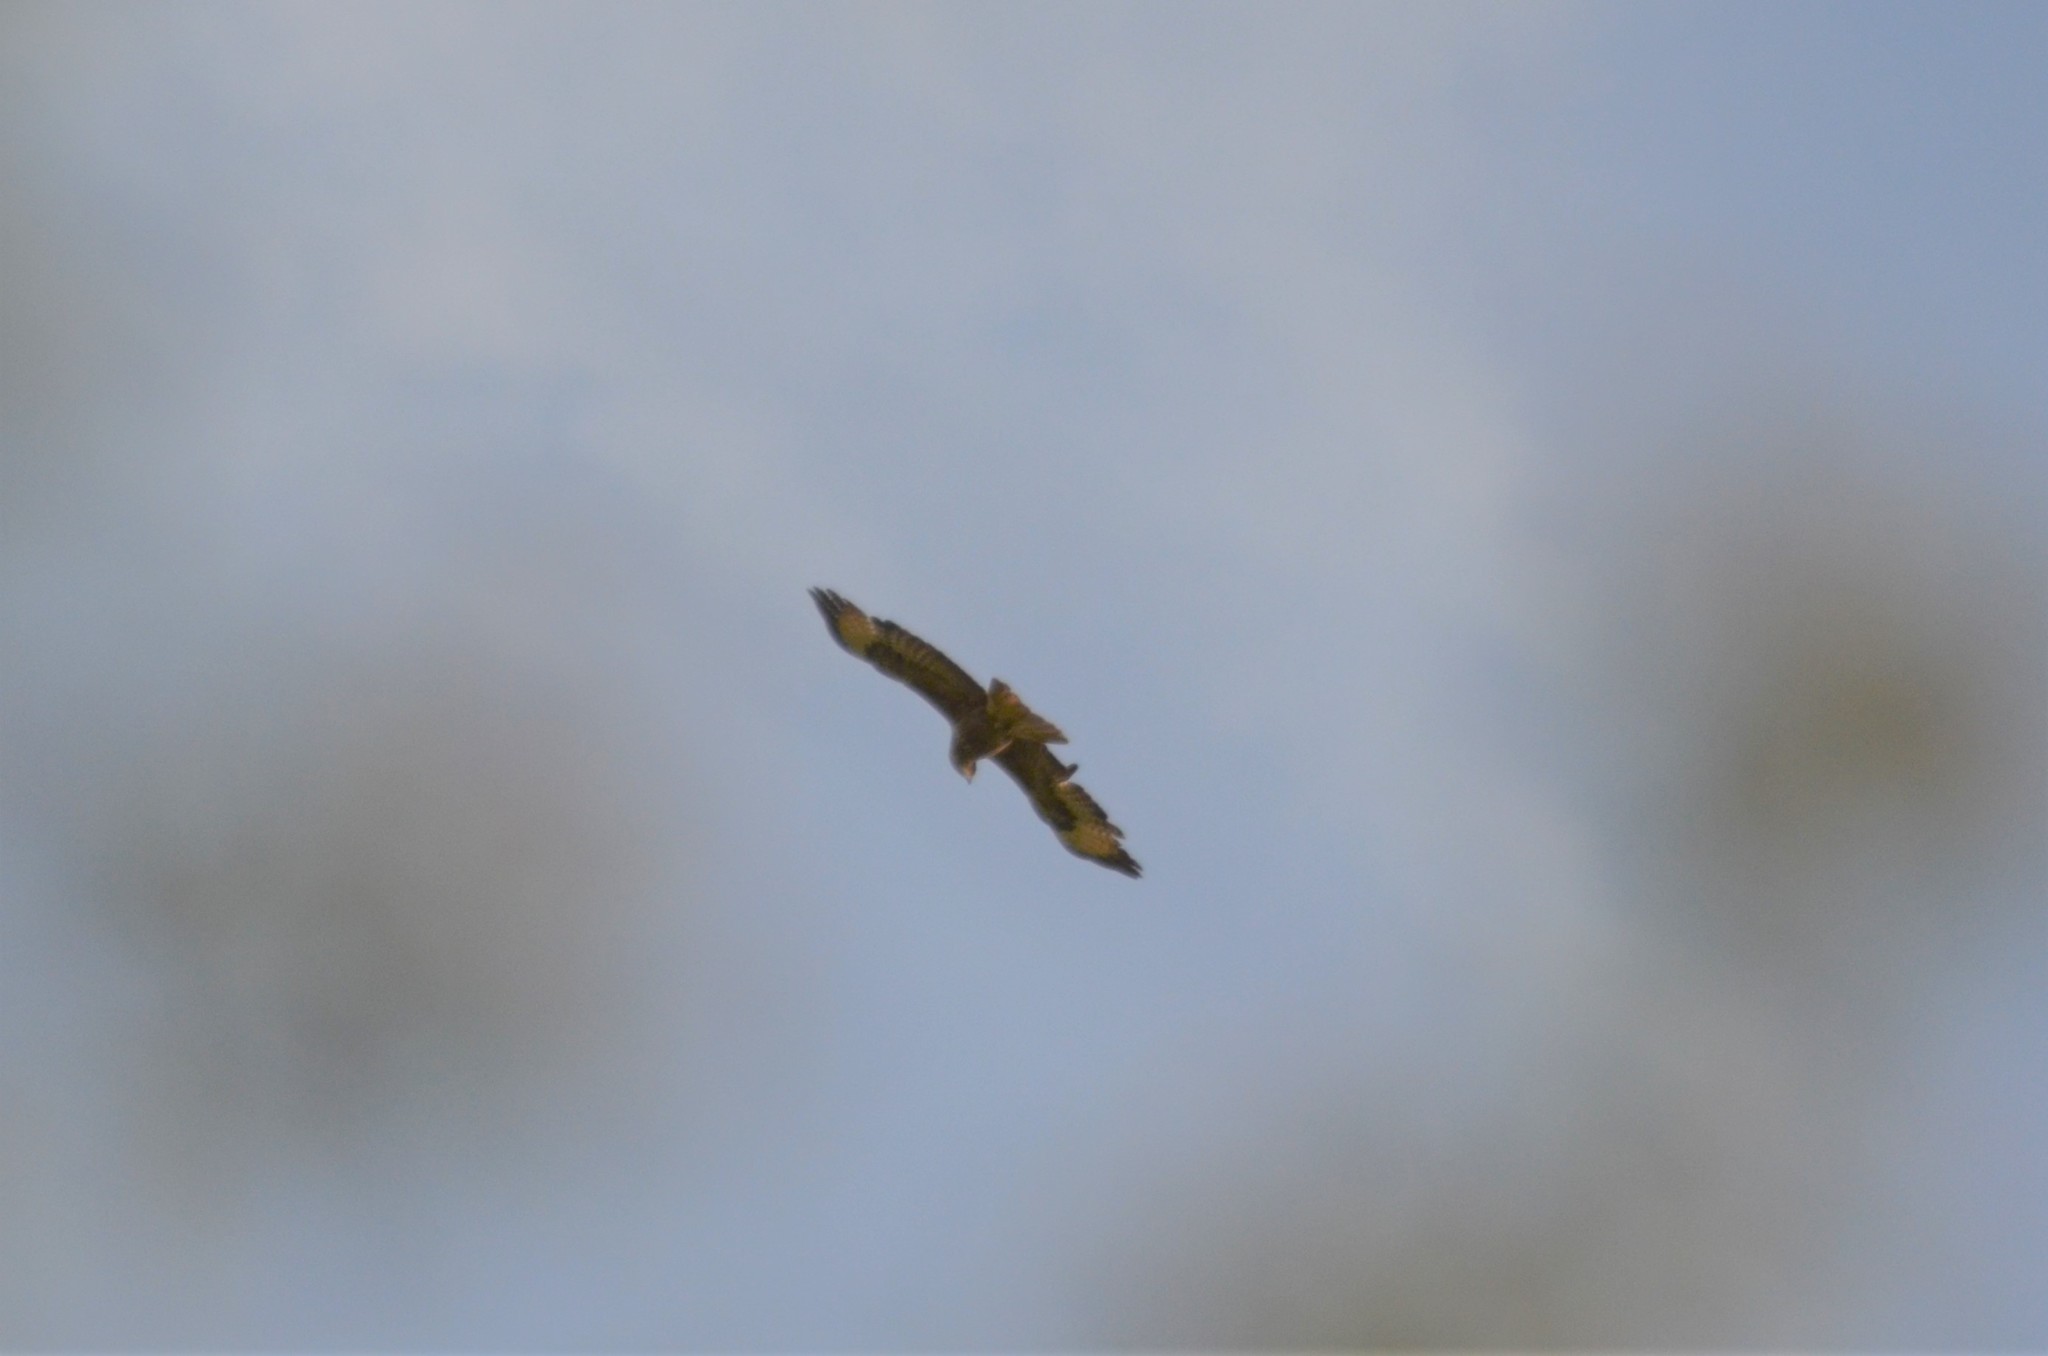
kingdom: Animalia
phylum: Chordata
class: Aves
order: Accipitriformes
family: Accipitridae
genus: Buteo
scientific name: Buteo buteo
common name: Common buzzard
